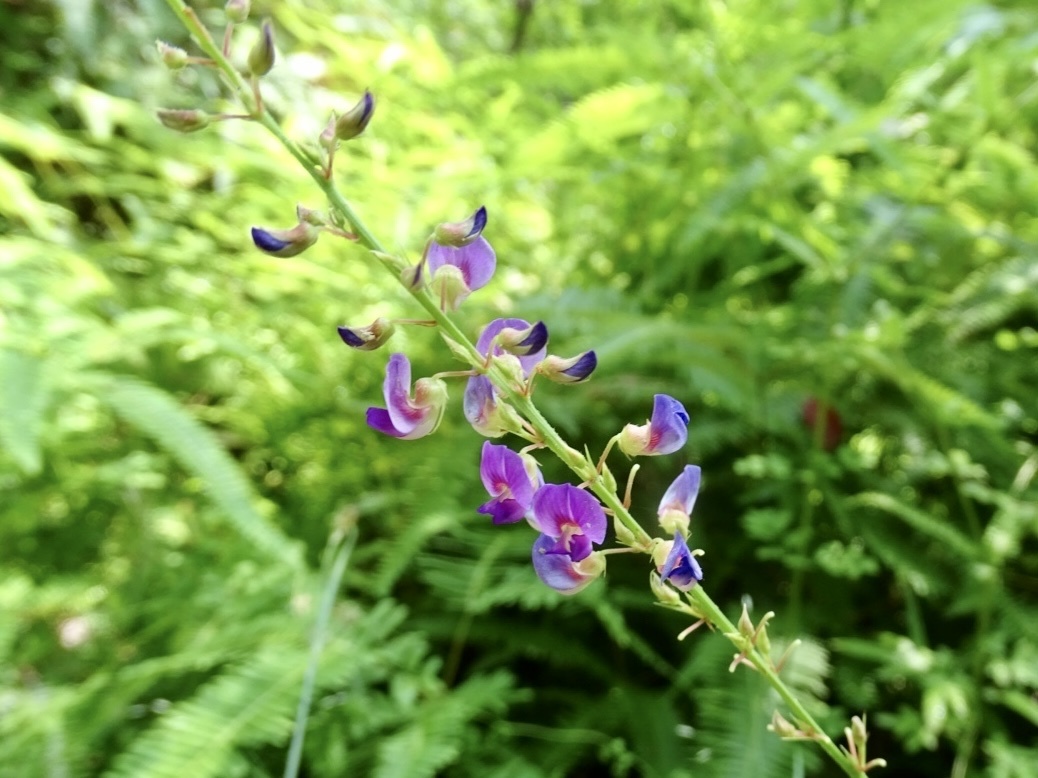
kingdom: Plantae
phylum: Tracheophyta
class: Magnoliopsida
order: Fabales
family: Fabaceae
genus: Tadehagi
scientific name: Tadehagi triquetrum
